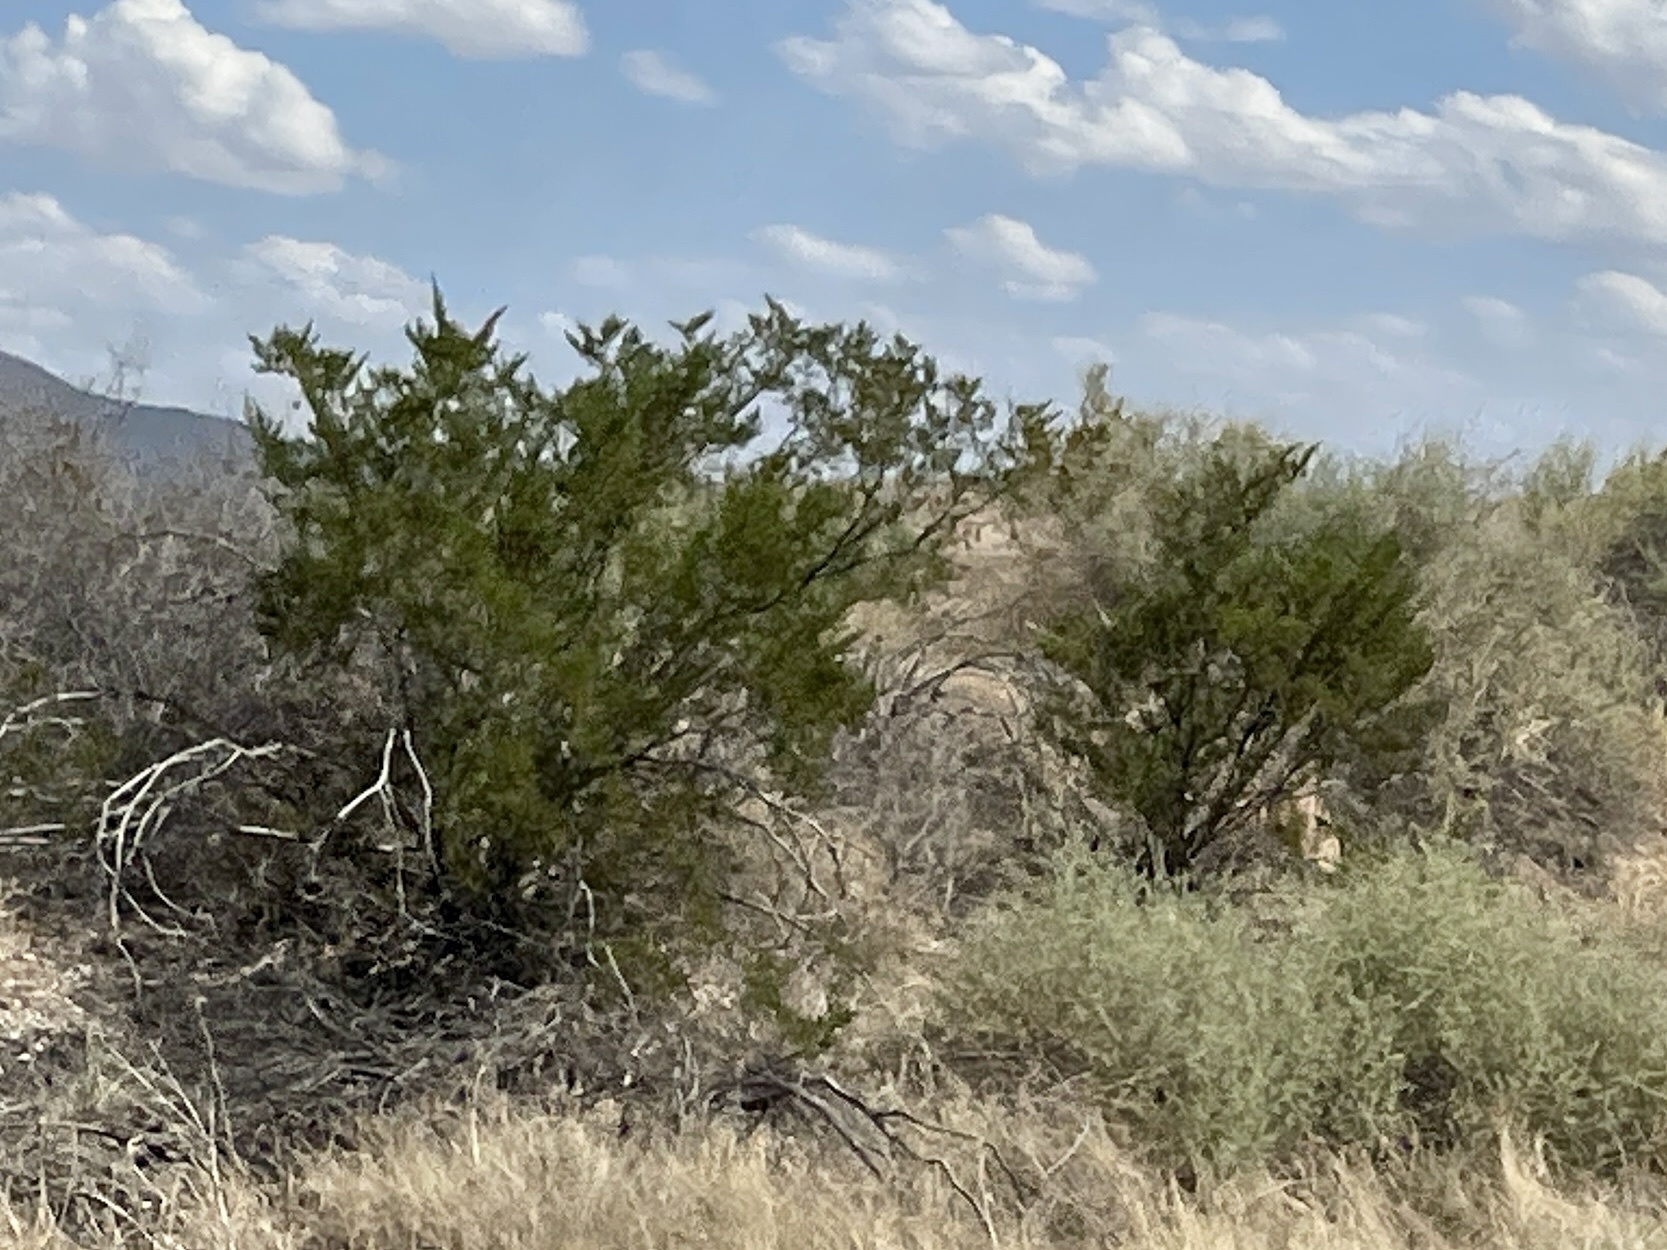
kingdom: Plantae
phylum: Tracheophyta
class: Magnoliopsida
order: Zygophyllales
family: Zygophyllaceae
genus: Larrea
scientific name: Larrea tridentata
